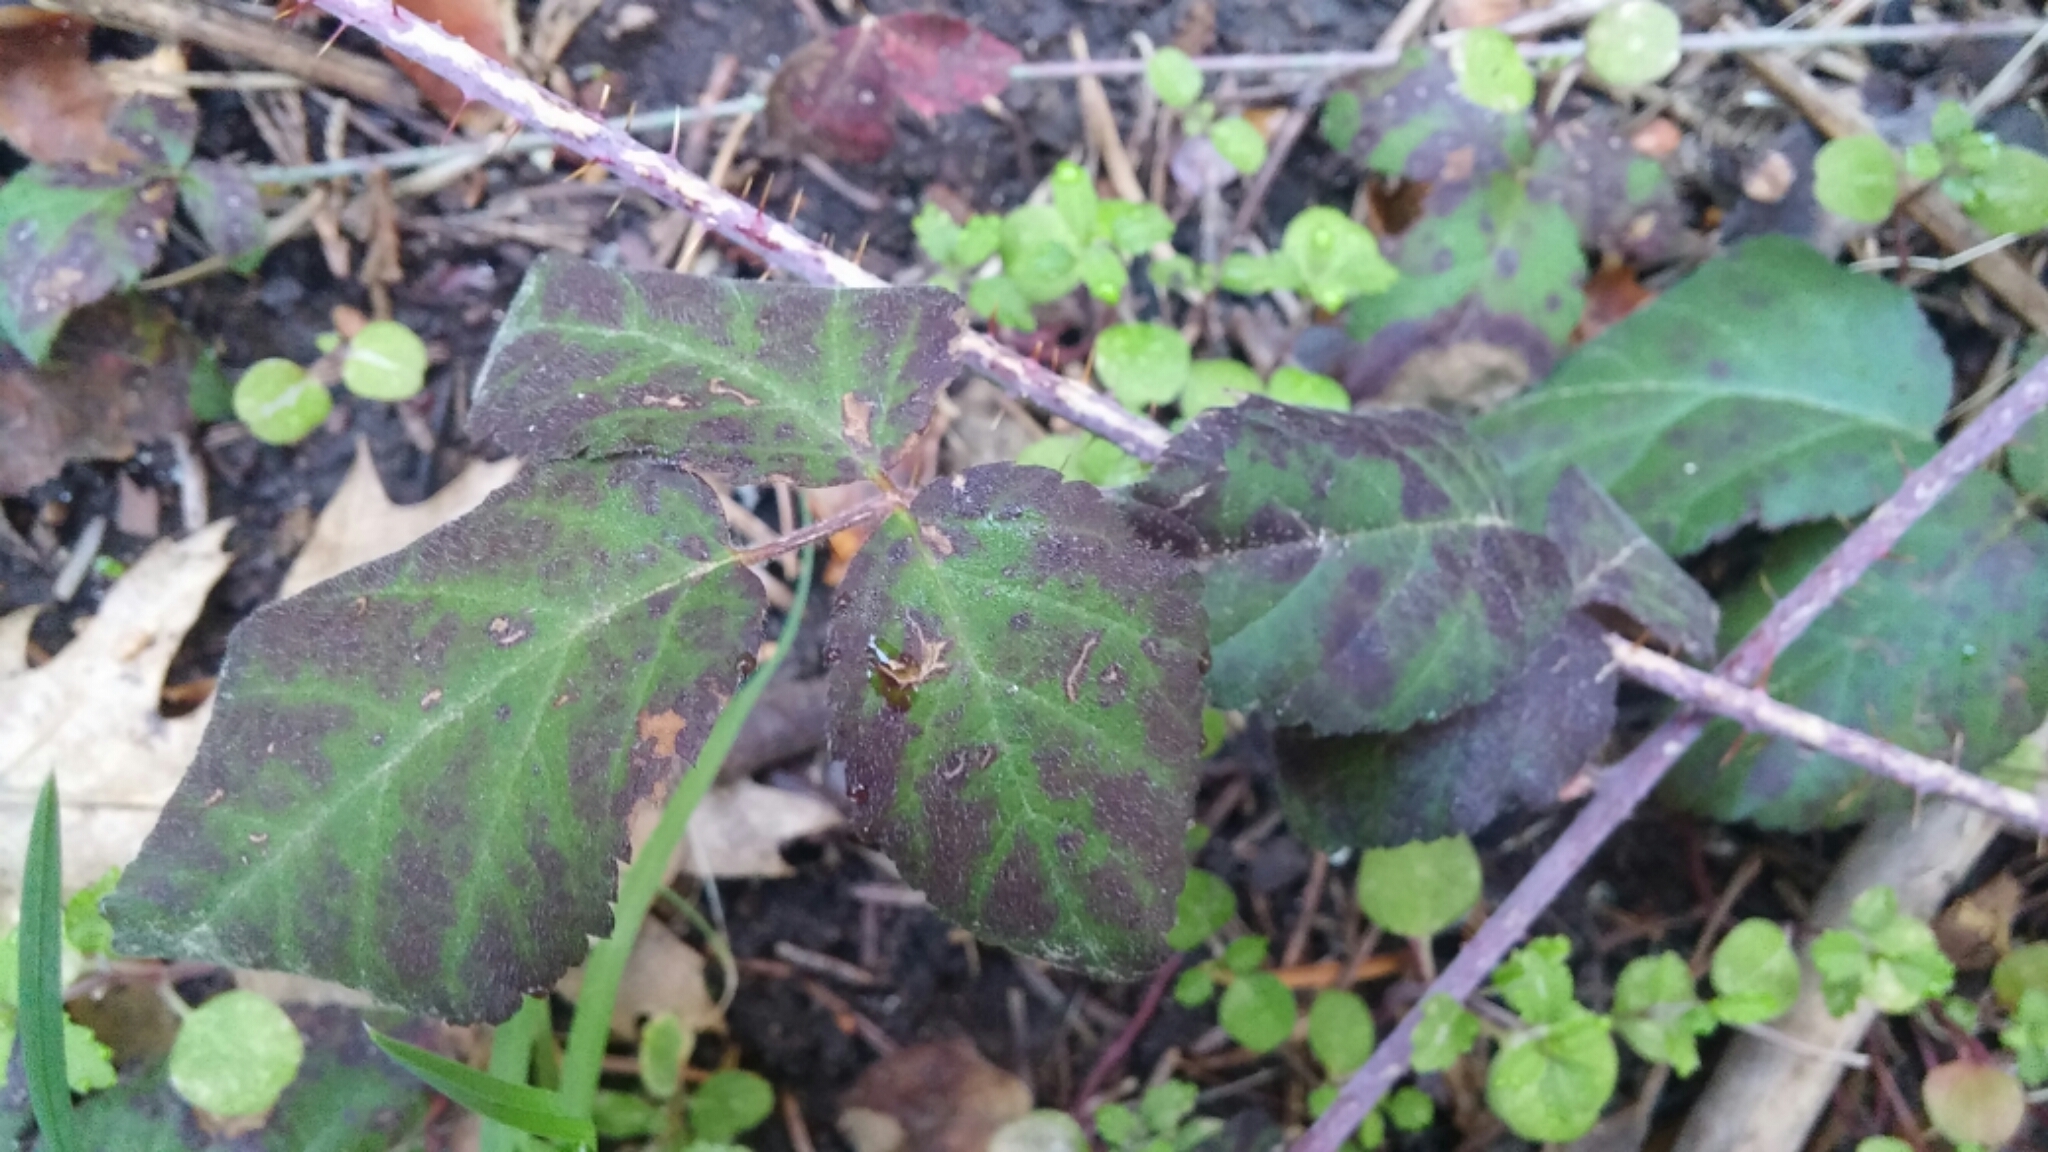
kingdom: Plantae
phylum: Tracheophyta
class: Magnoliopsida
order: Rosales
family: Rosaceae
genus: Rubus
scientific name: Rubus ursinus
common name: Pacific blackberry
